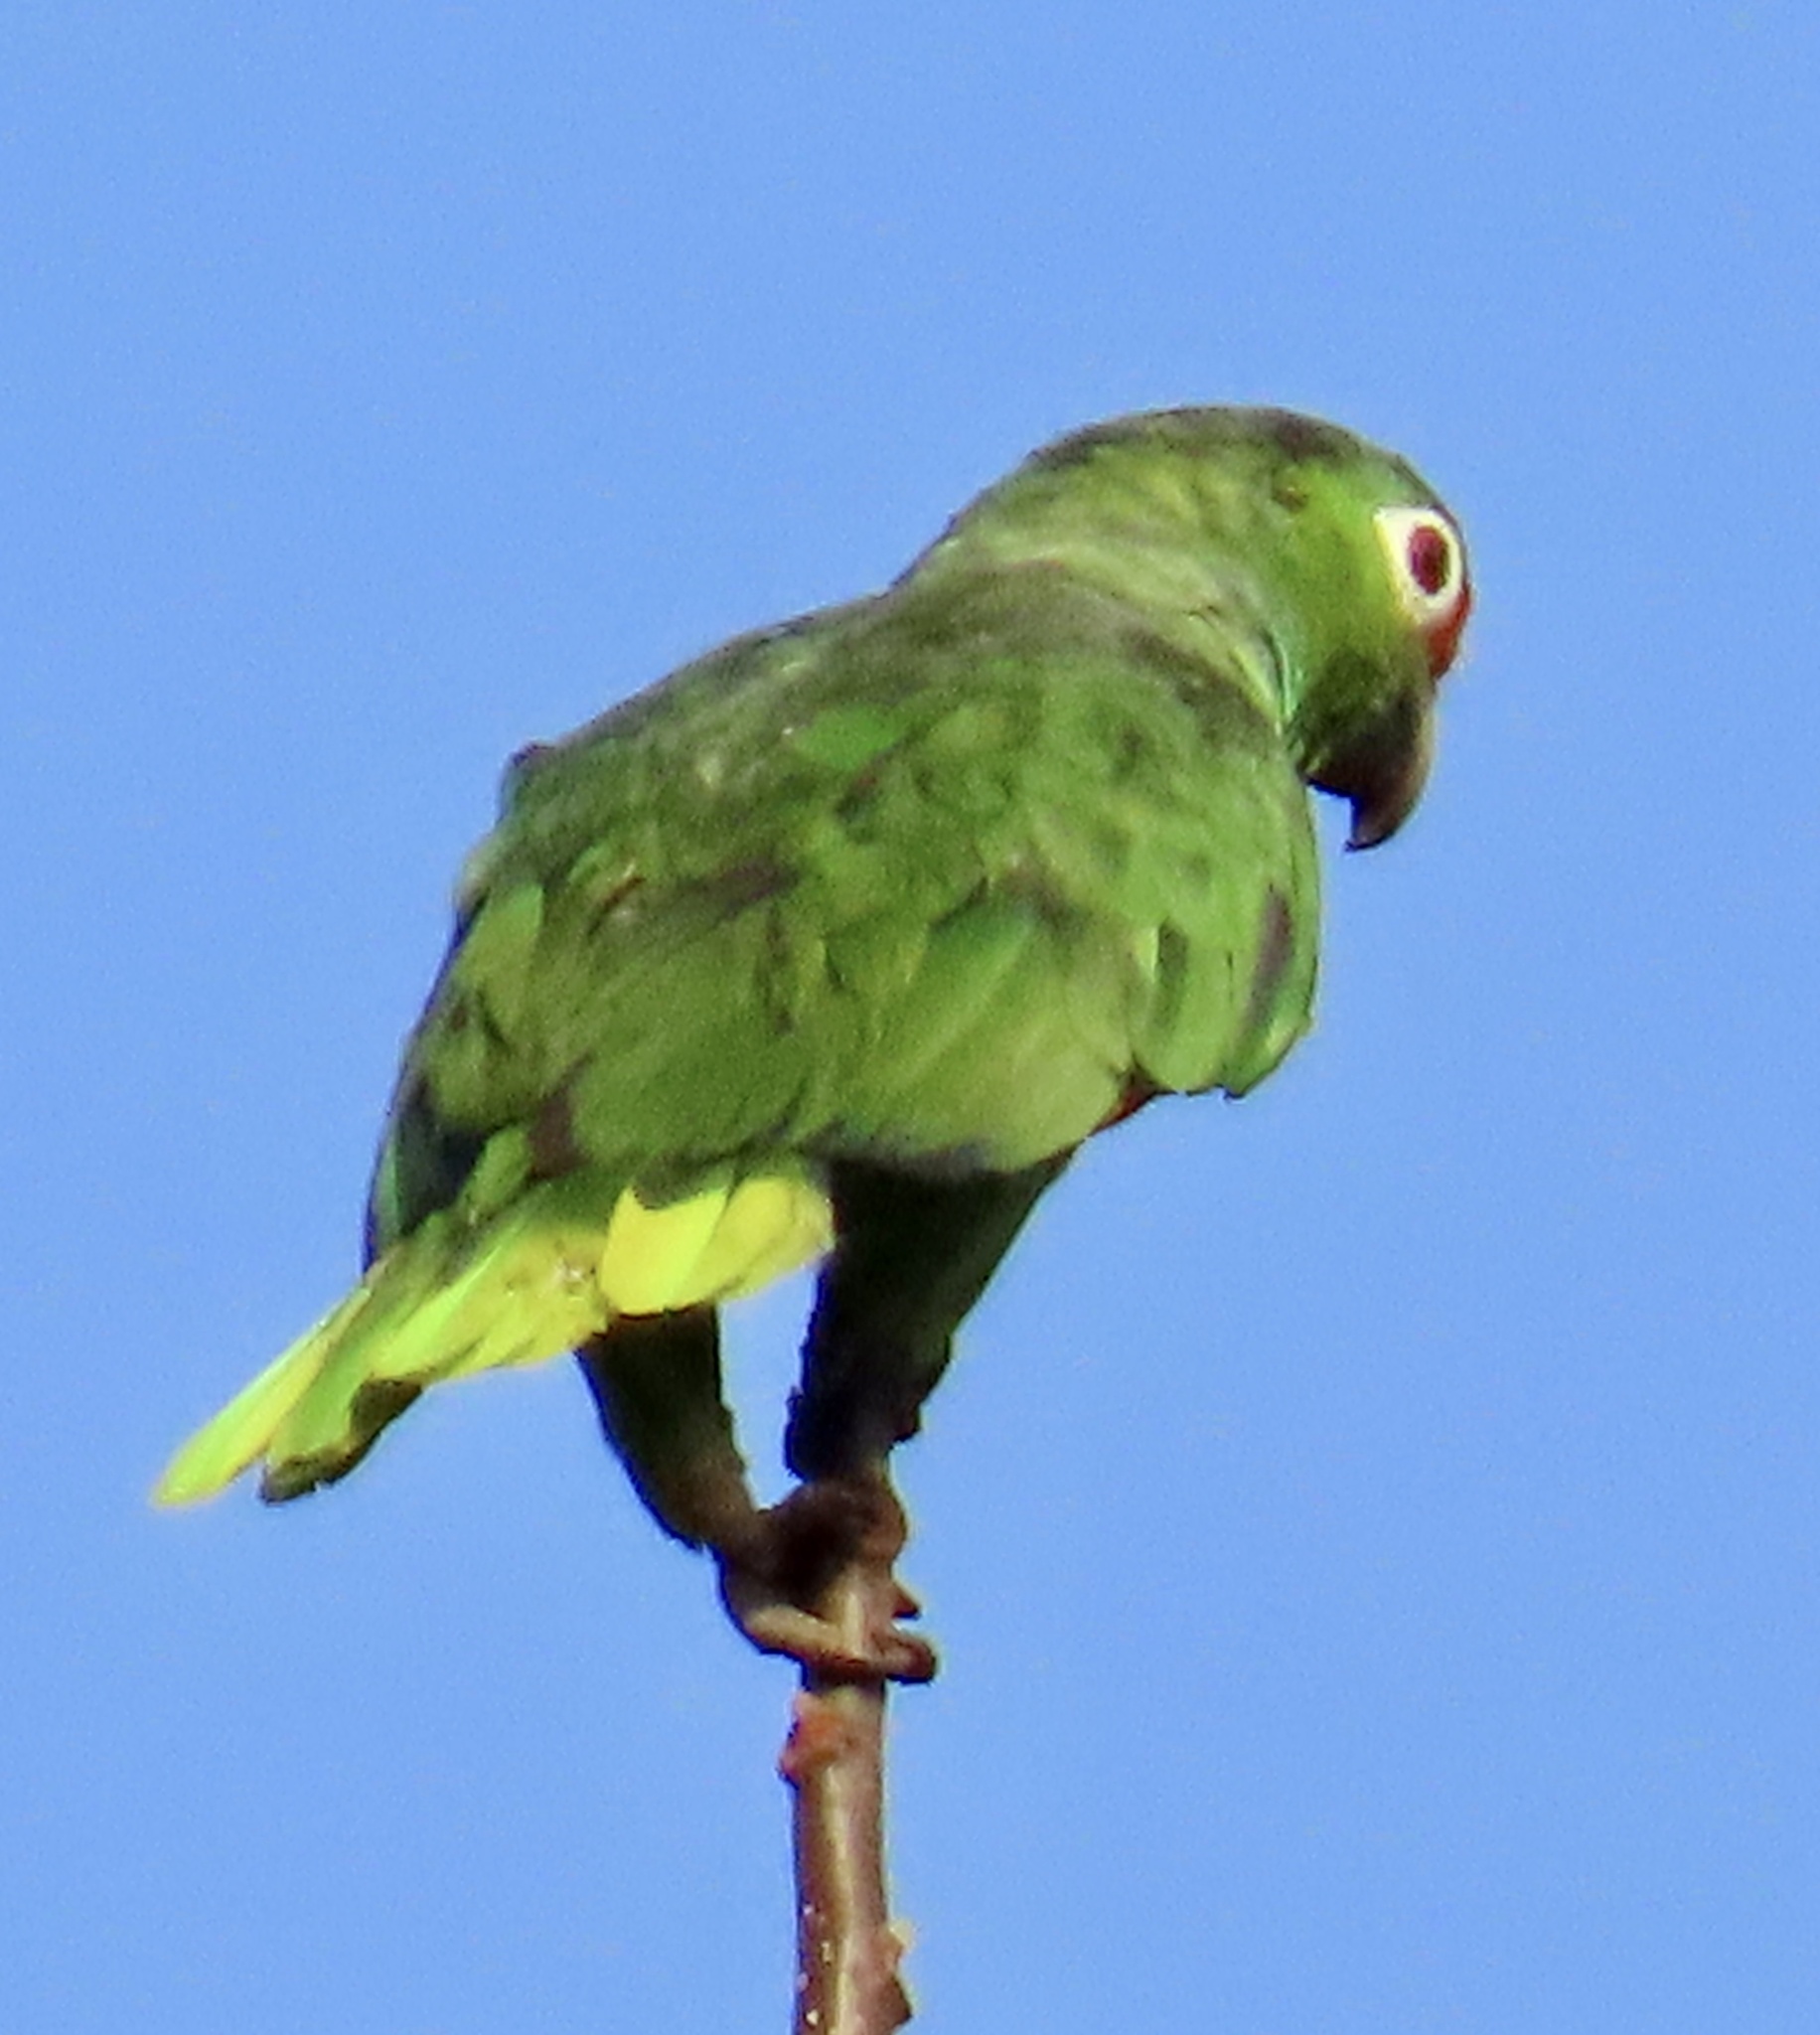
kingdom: Animalia
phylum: Chordata
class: Aves
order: Psittaciformes
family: Psittacidae
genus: Amazona
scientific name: Amazona autumnalis
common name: Red-lored amazon
